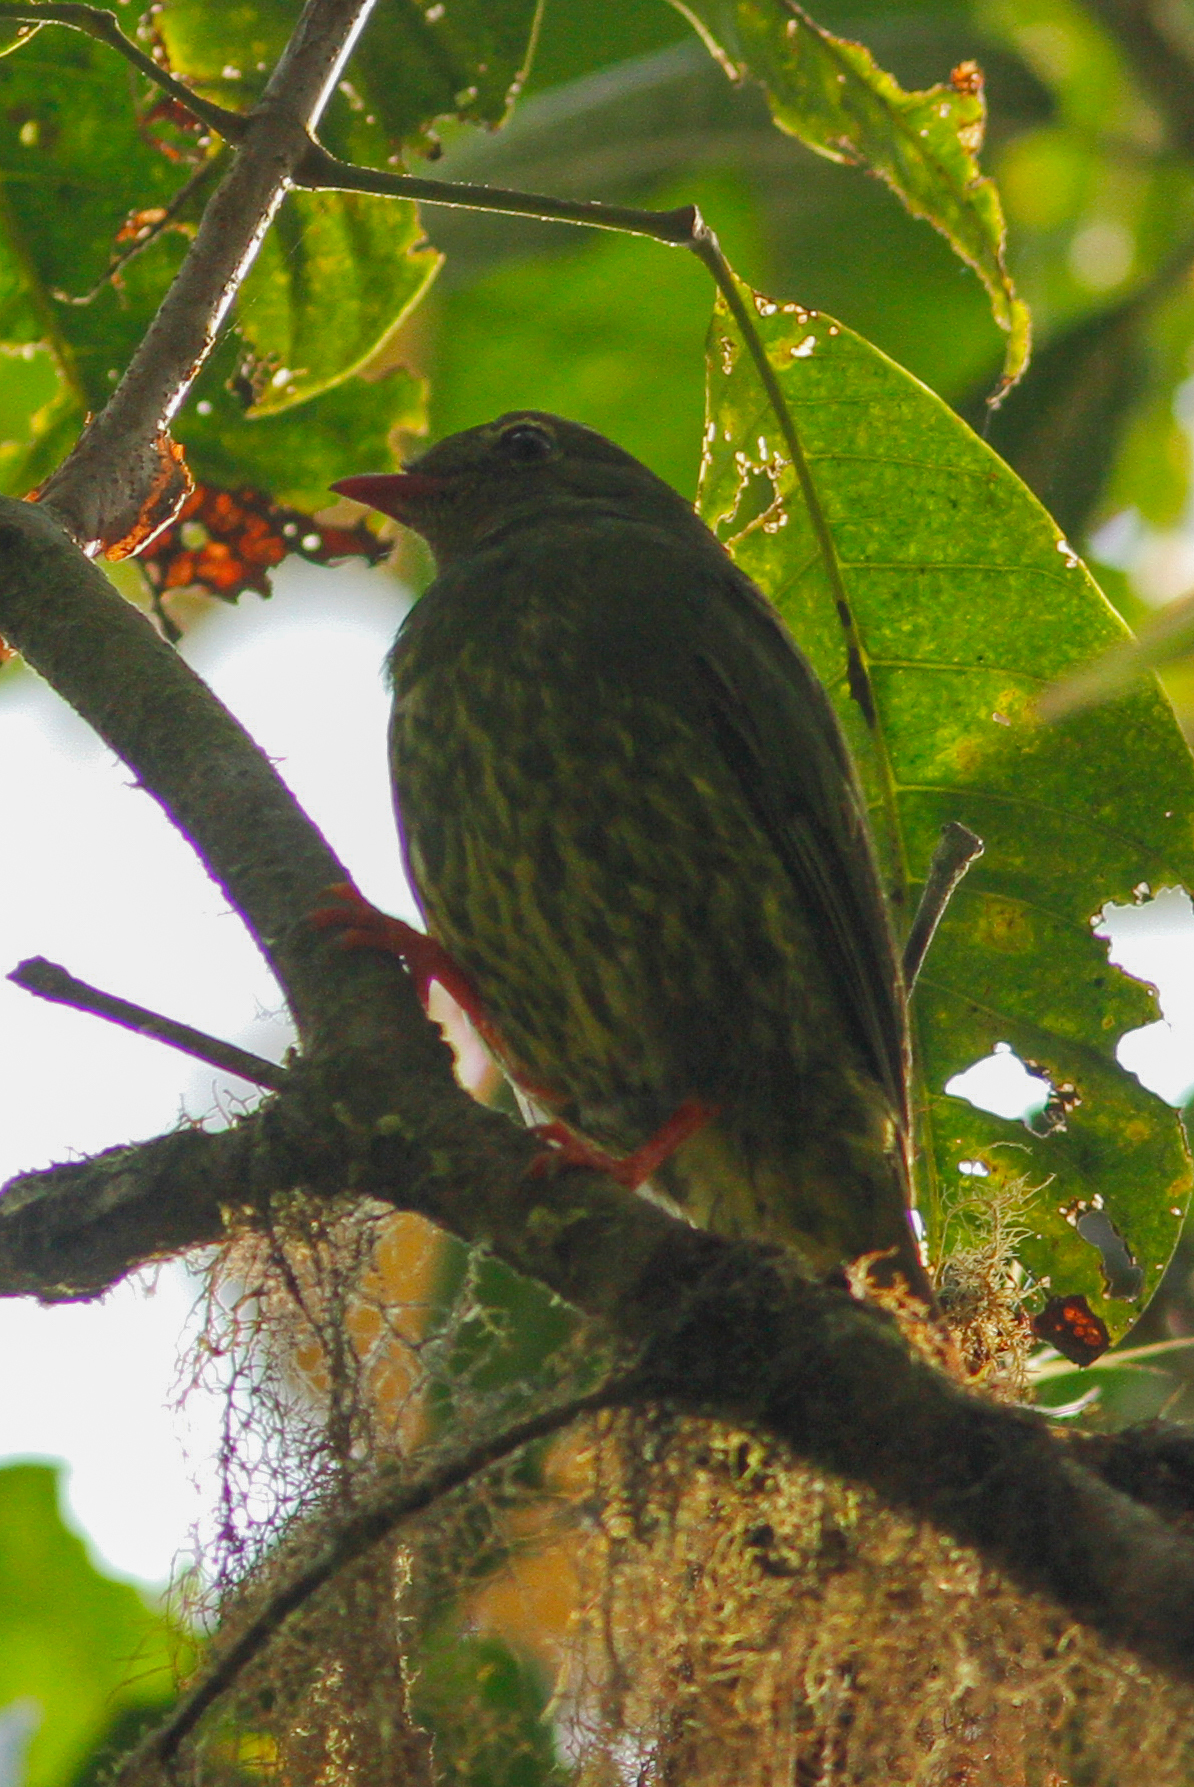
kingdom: Animalia
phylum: Chordata
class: Aves
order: Passeriformes
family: Cotingidae
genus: Pipreola
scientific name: Pipreola riefferii
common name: Green-and-black fruiteater
